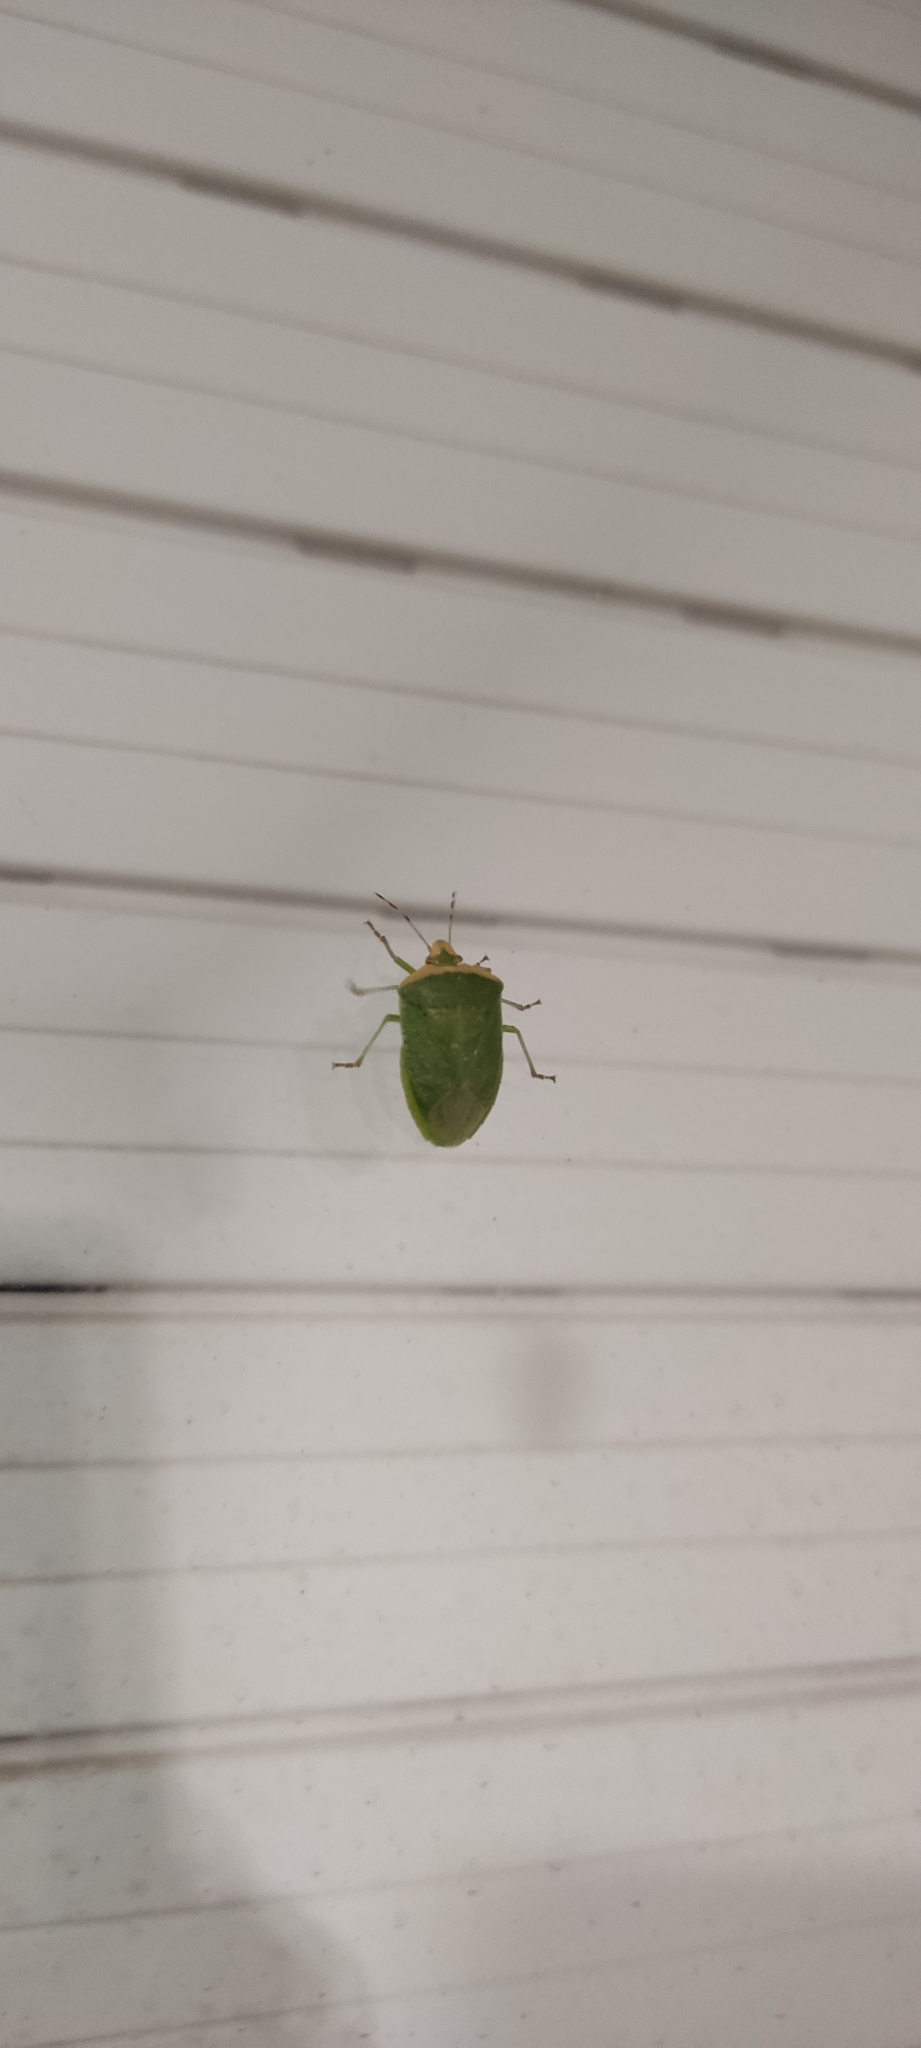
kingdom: Animalia
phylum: Arthropoda
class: Insecta
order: Hemiptera
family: Pentatomidae
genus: Nezara
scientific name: Nezara viridula
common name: Southern green stink bug
